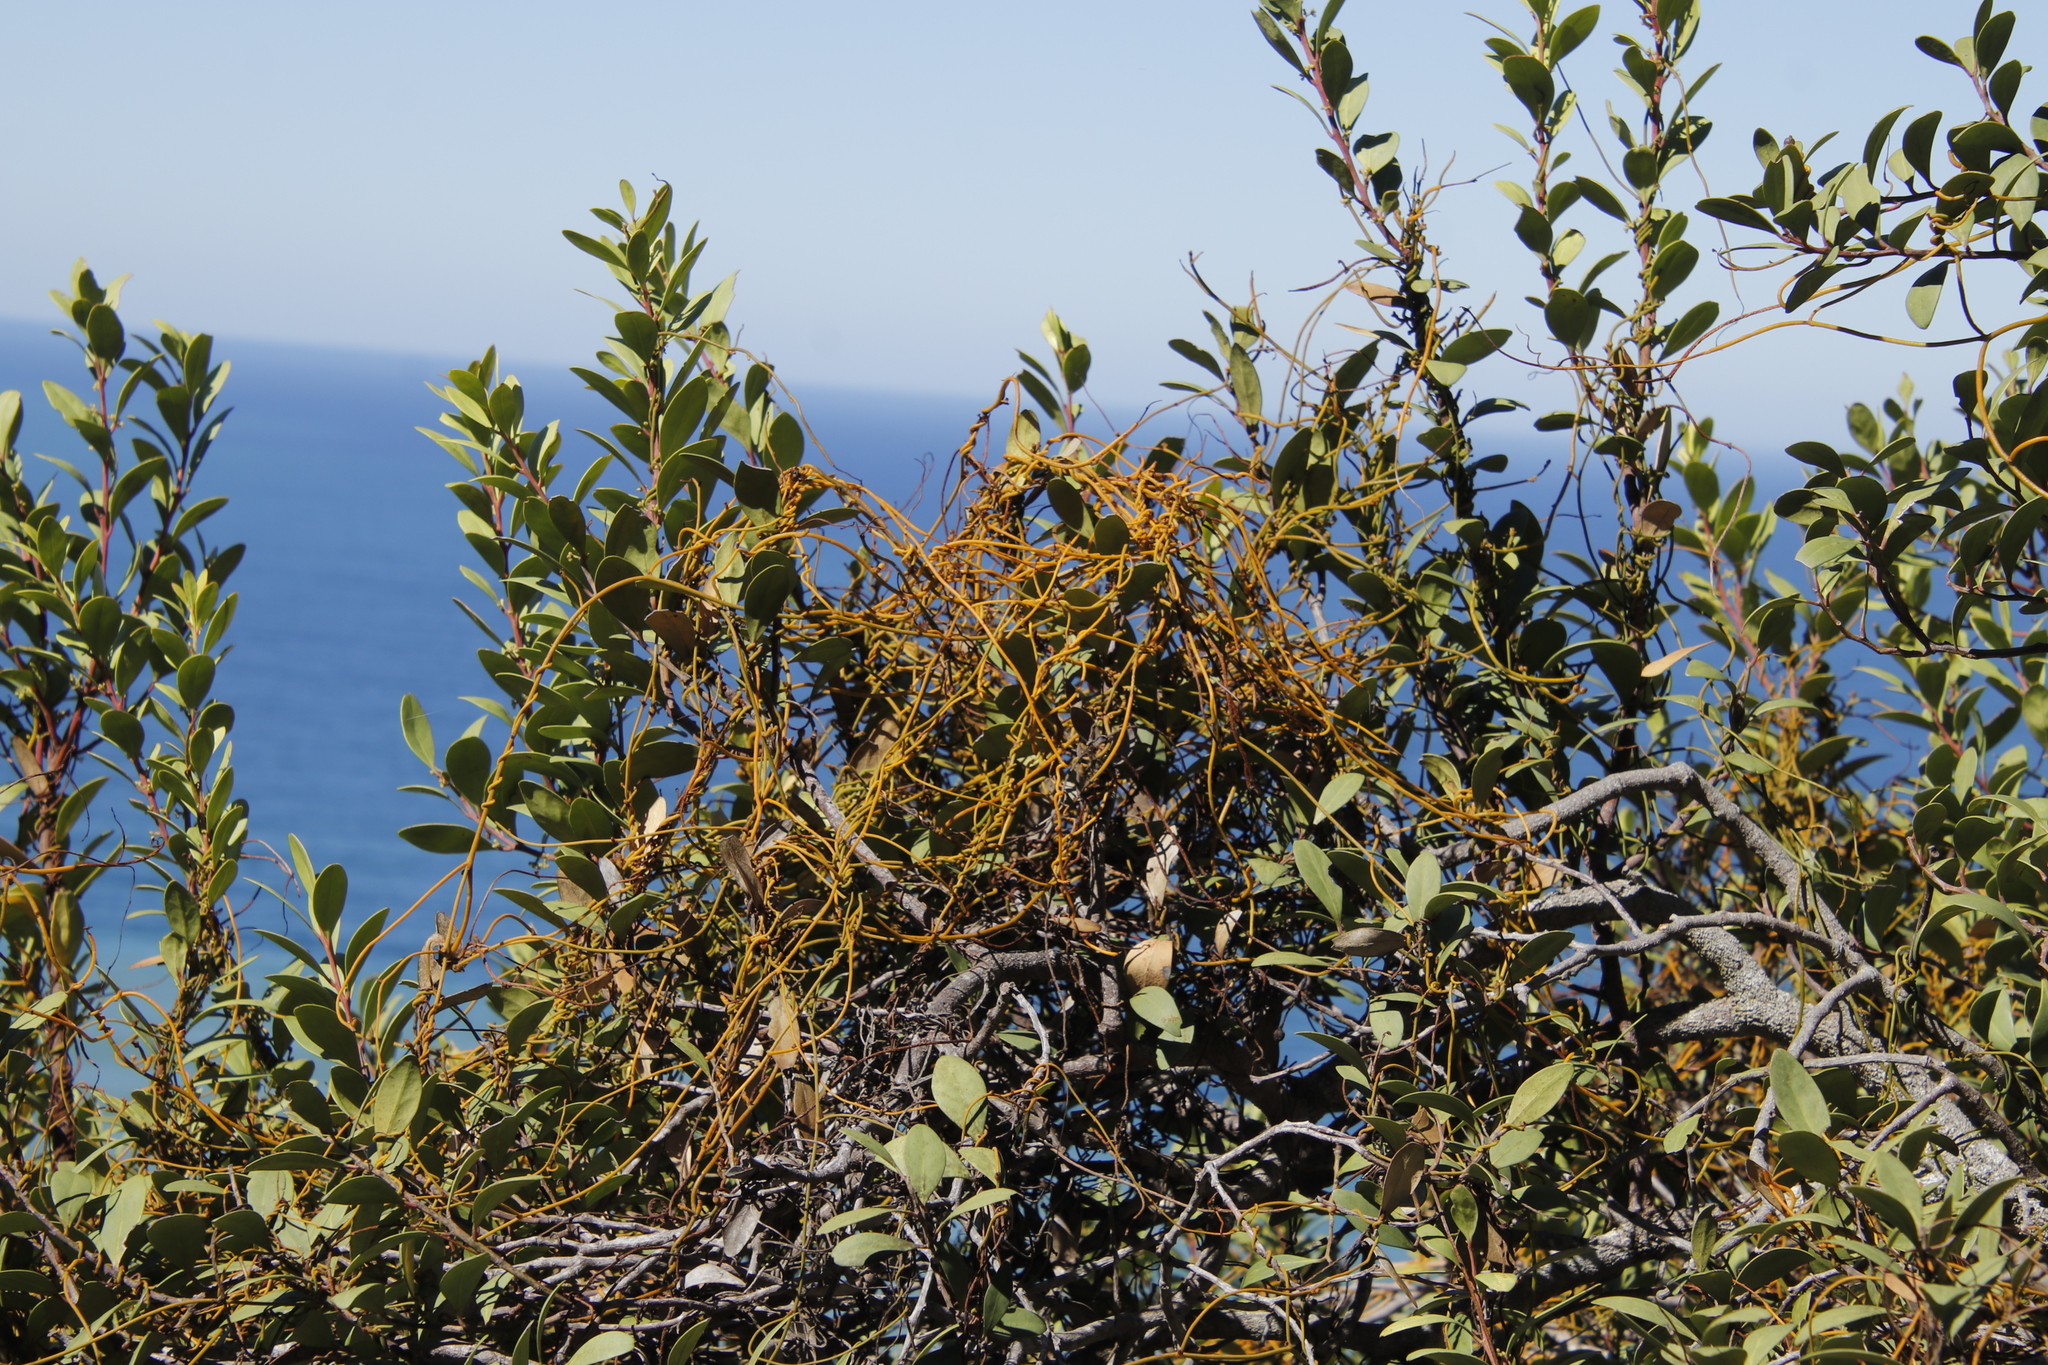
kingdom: Plantae
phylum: Tracheophyta
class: Magnoliopsida
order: Laurales
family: Lauraceae
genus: Cassytha
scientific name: Cassytha ciliolata
